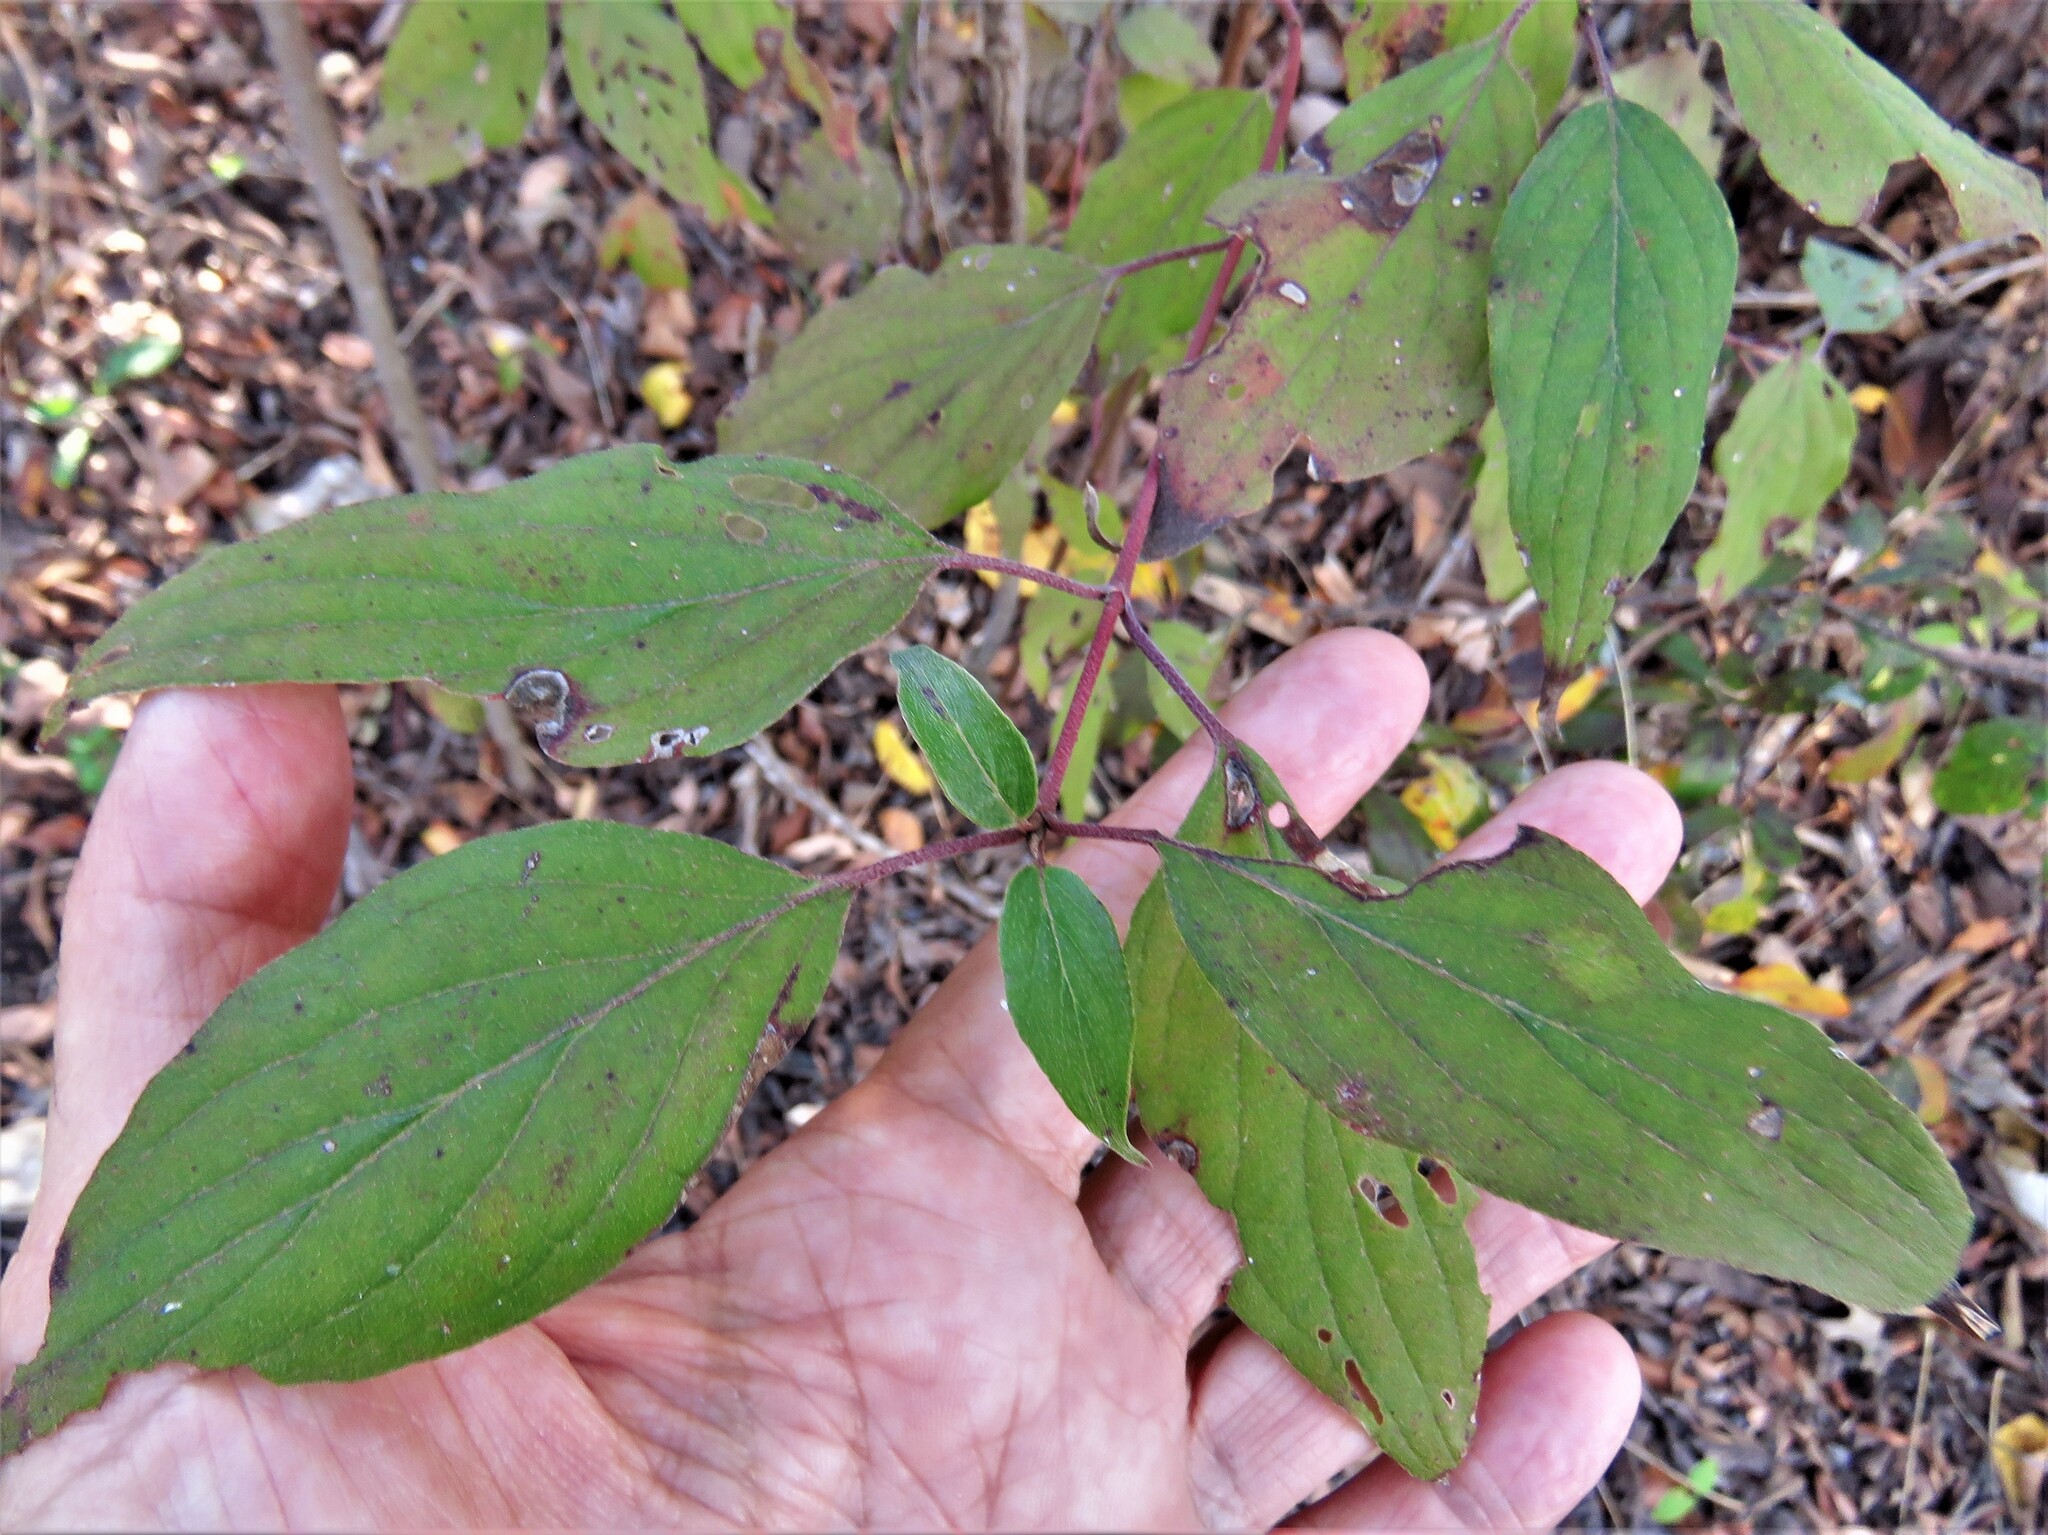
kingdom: Plantae
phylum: Tracheophyta
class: Magnoliopsida
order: Cornales
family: Cornaceae
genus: Cornus
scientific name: Cornus drummondii
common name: Rough-leaf dogwood
